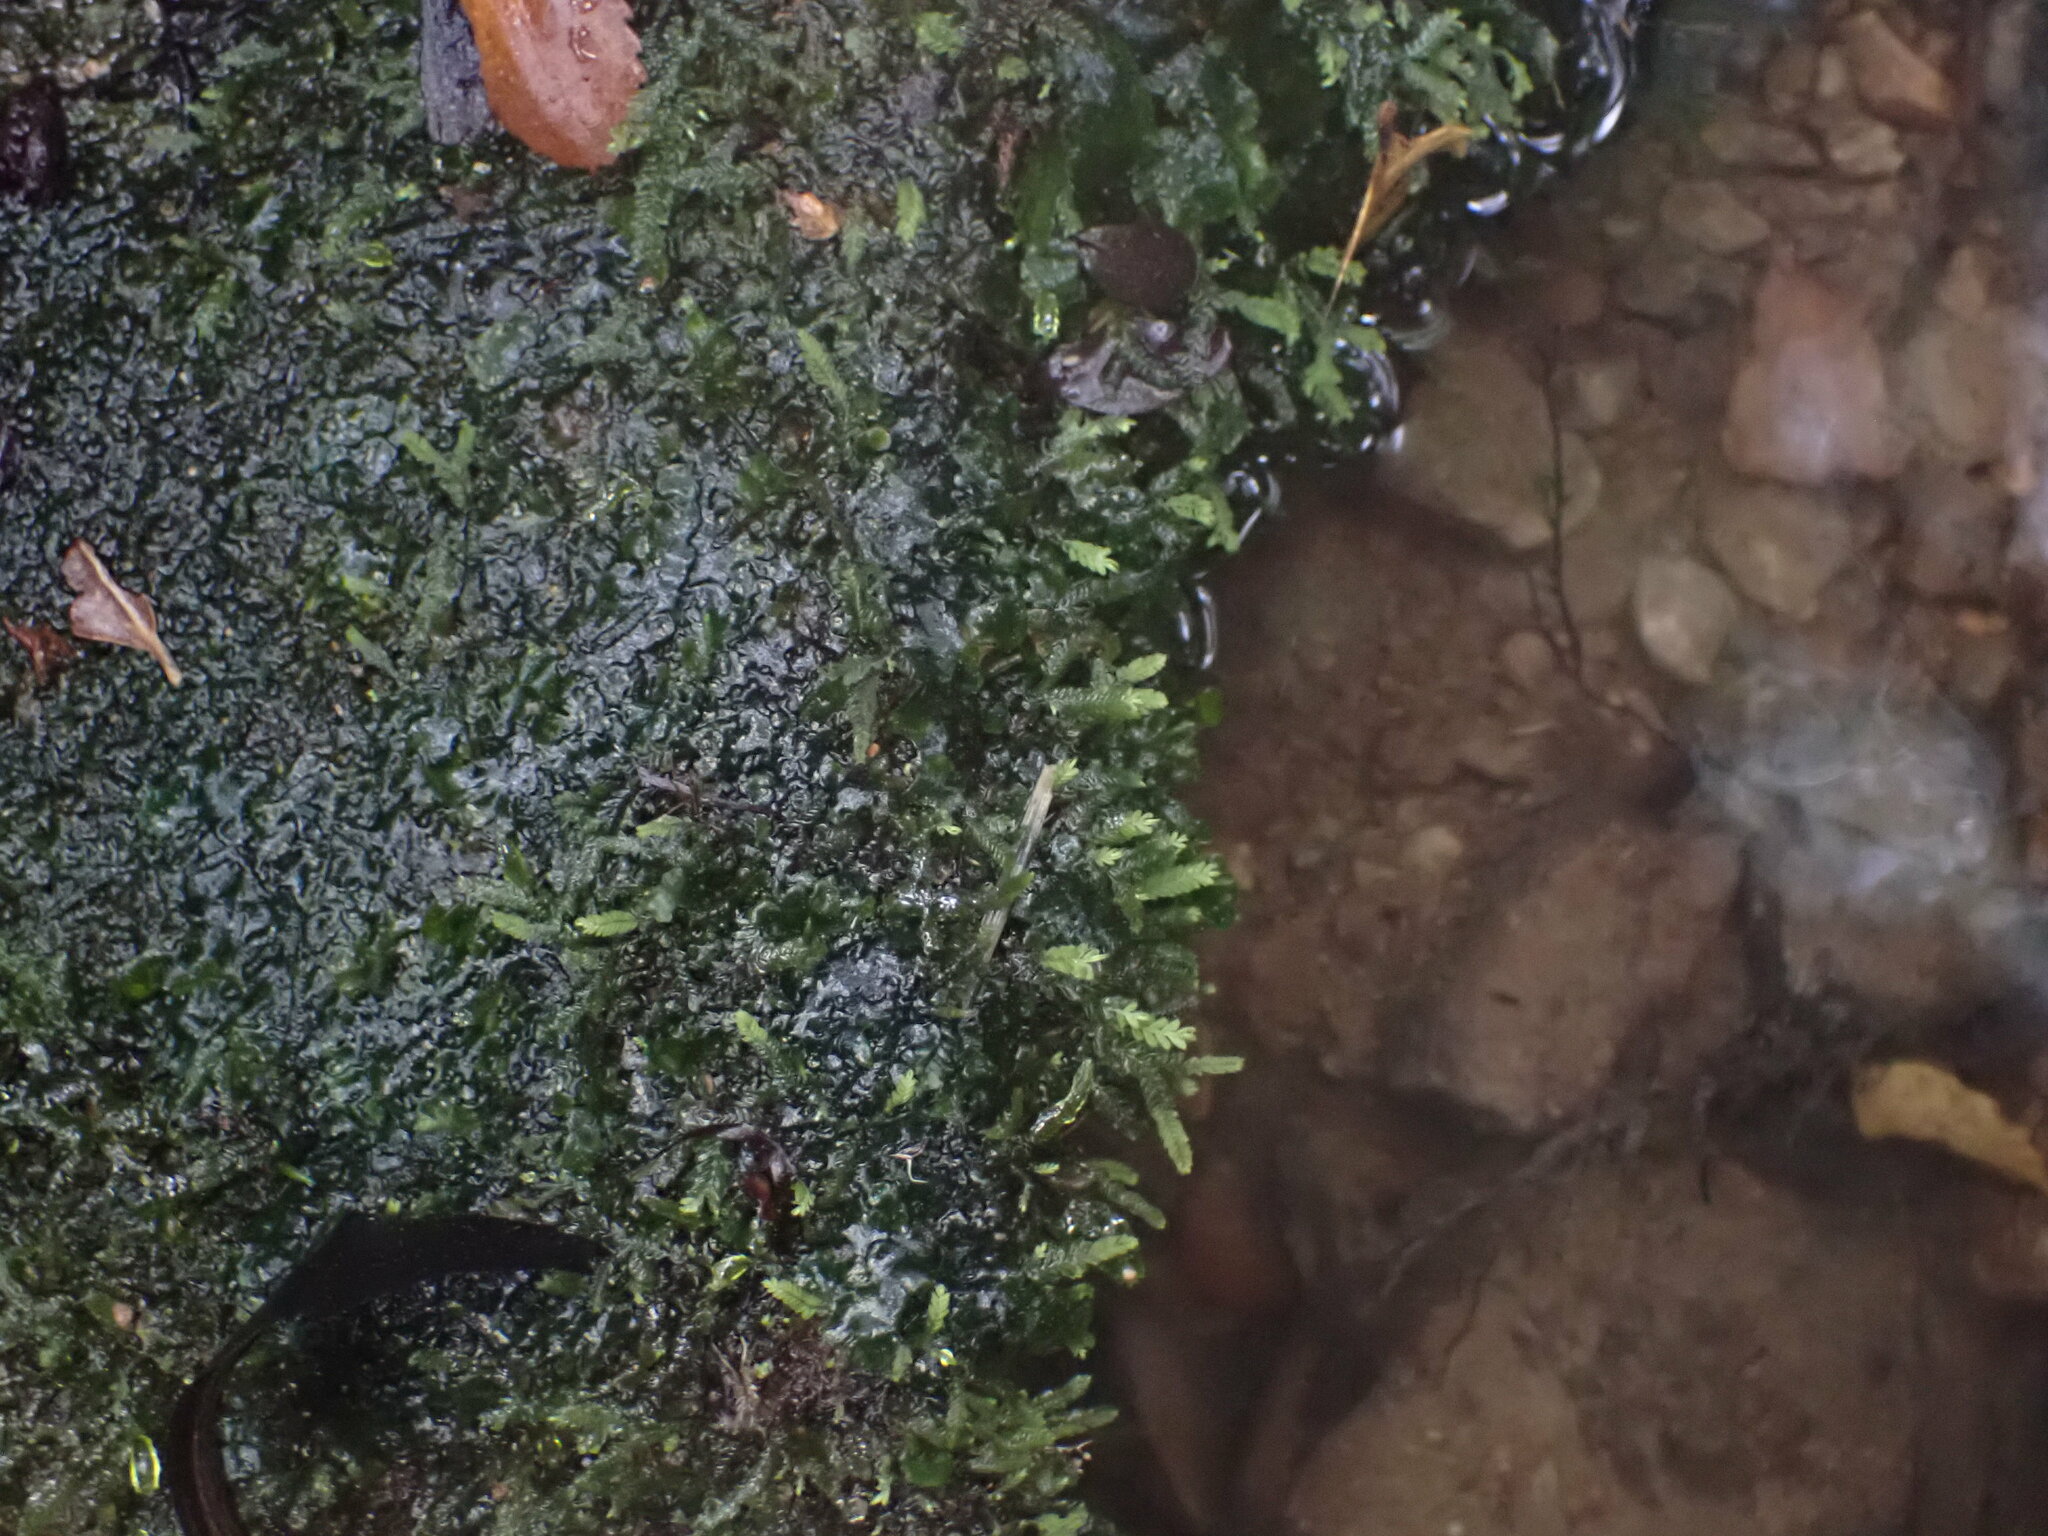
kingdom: Plantae
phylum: Marchantiophyta
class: Jungermanniopsida
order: Jungermanniales
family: Plagiochilaceae
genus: Dinckleria
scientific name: Dinckleria fruticella
